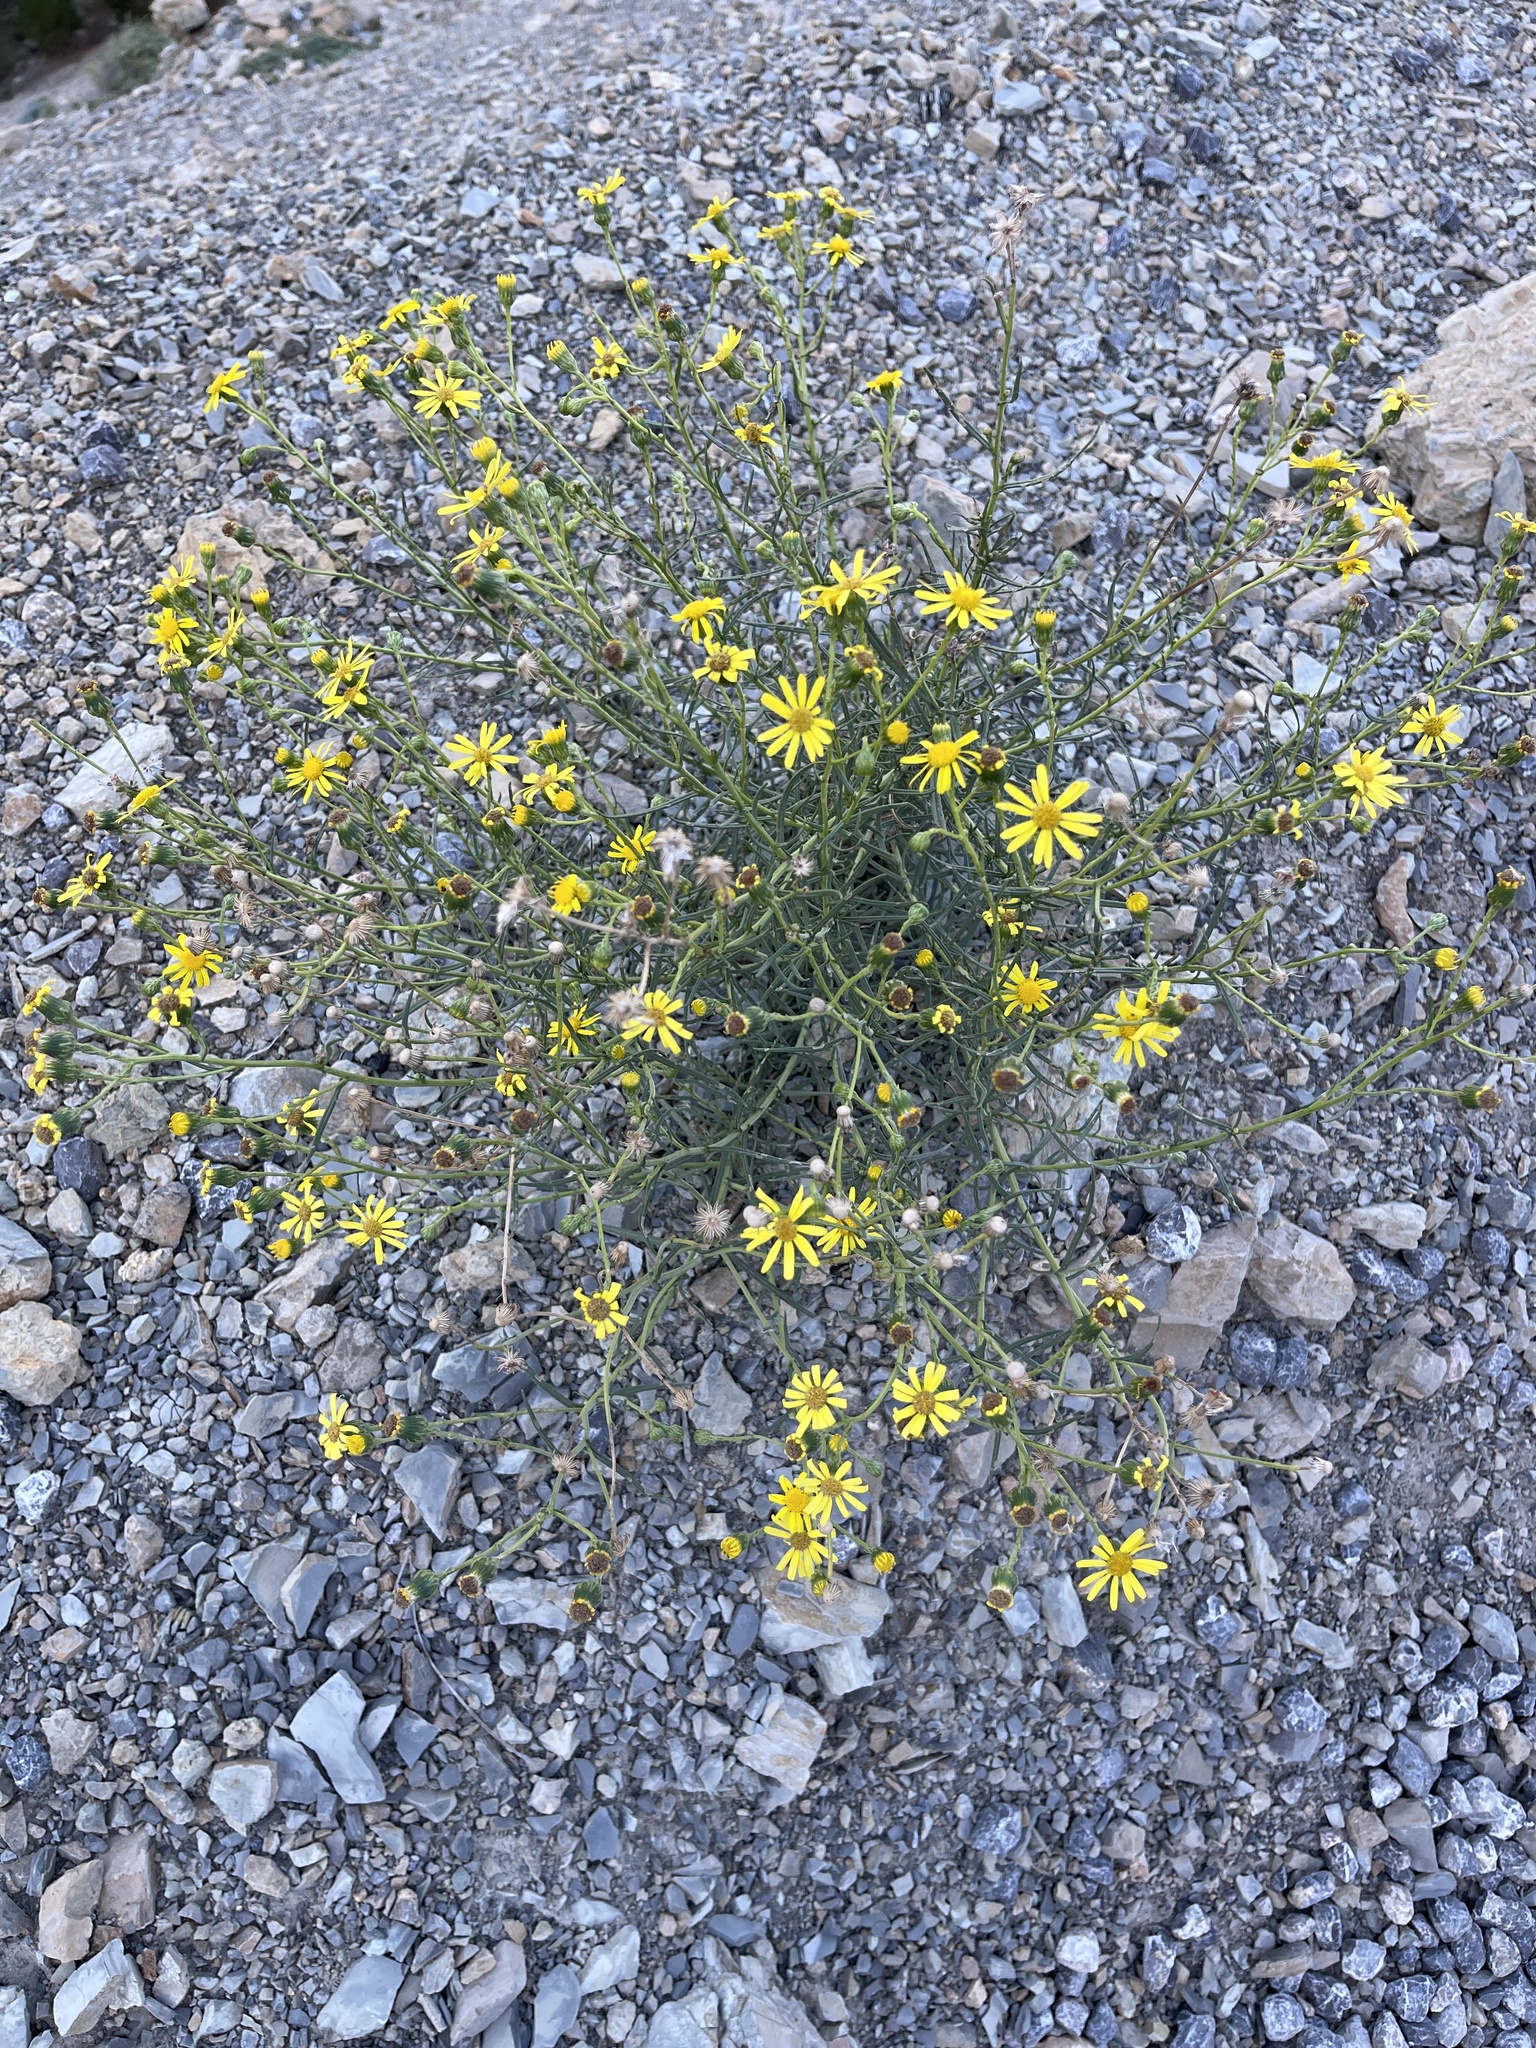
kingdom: Plantae
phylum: Tracheophyta
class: Magnoliopsida
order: Asterales
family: Asteraceae
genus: Senecio
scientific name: Senecio inaequidens
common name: Narrow-leaved ragwort
